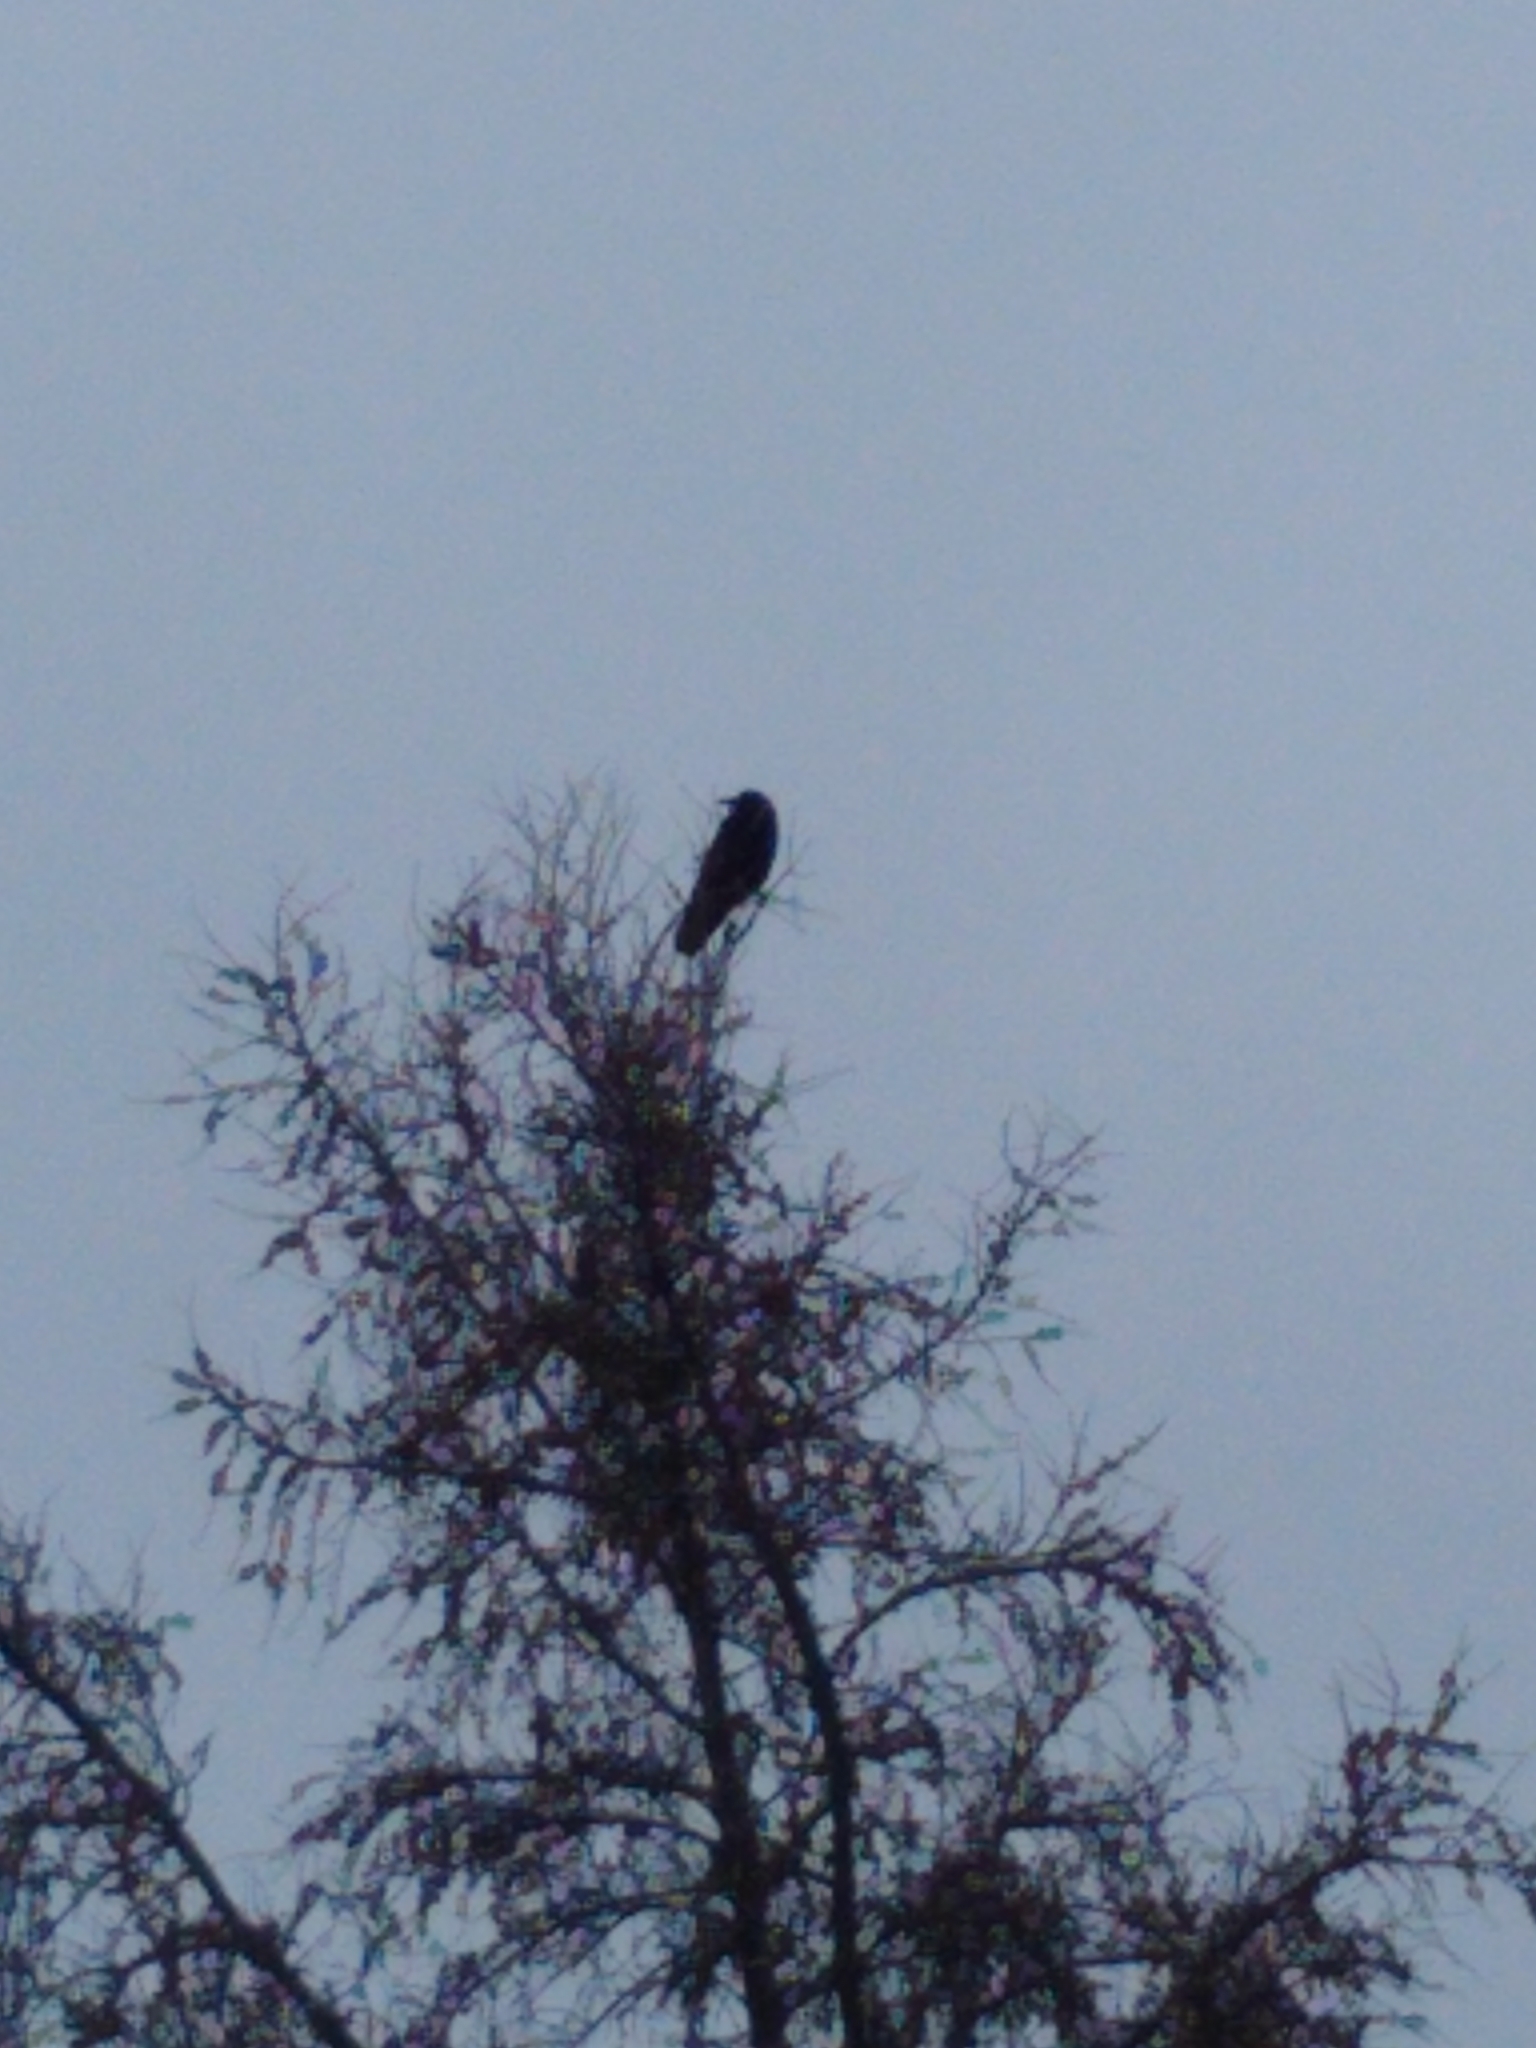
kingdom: Animalia
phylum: Chordata
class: Aves
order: Passeriformes
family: Corvidae
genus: Corvus
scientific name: Corvus brachyrhynchos
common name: American crow
